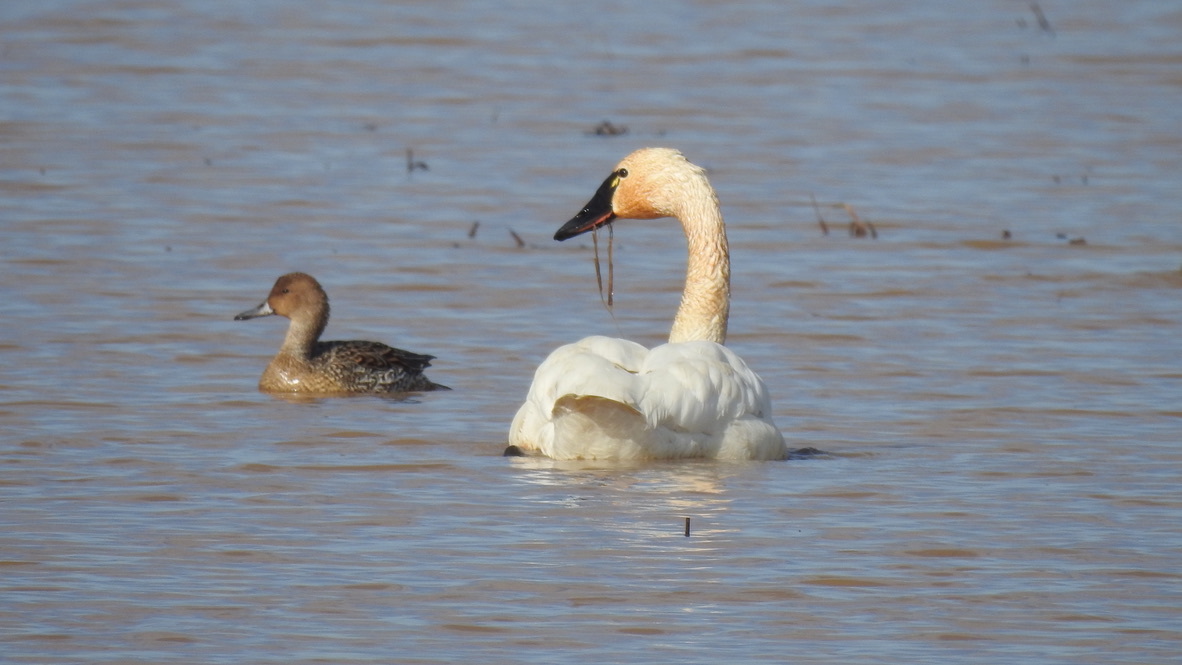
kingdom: Animalia
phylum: Chordata
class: Aves
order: Anseriformes
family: Anatidae
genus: Cygnus
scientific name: Cygnus columbianus
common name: Tundra swan
